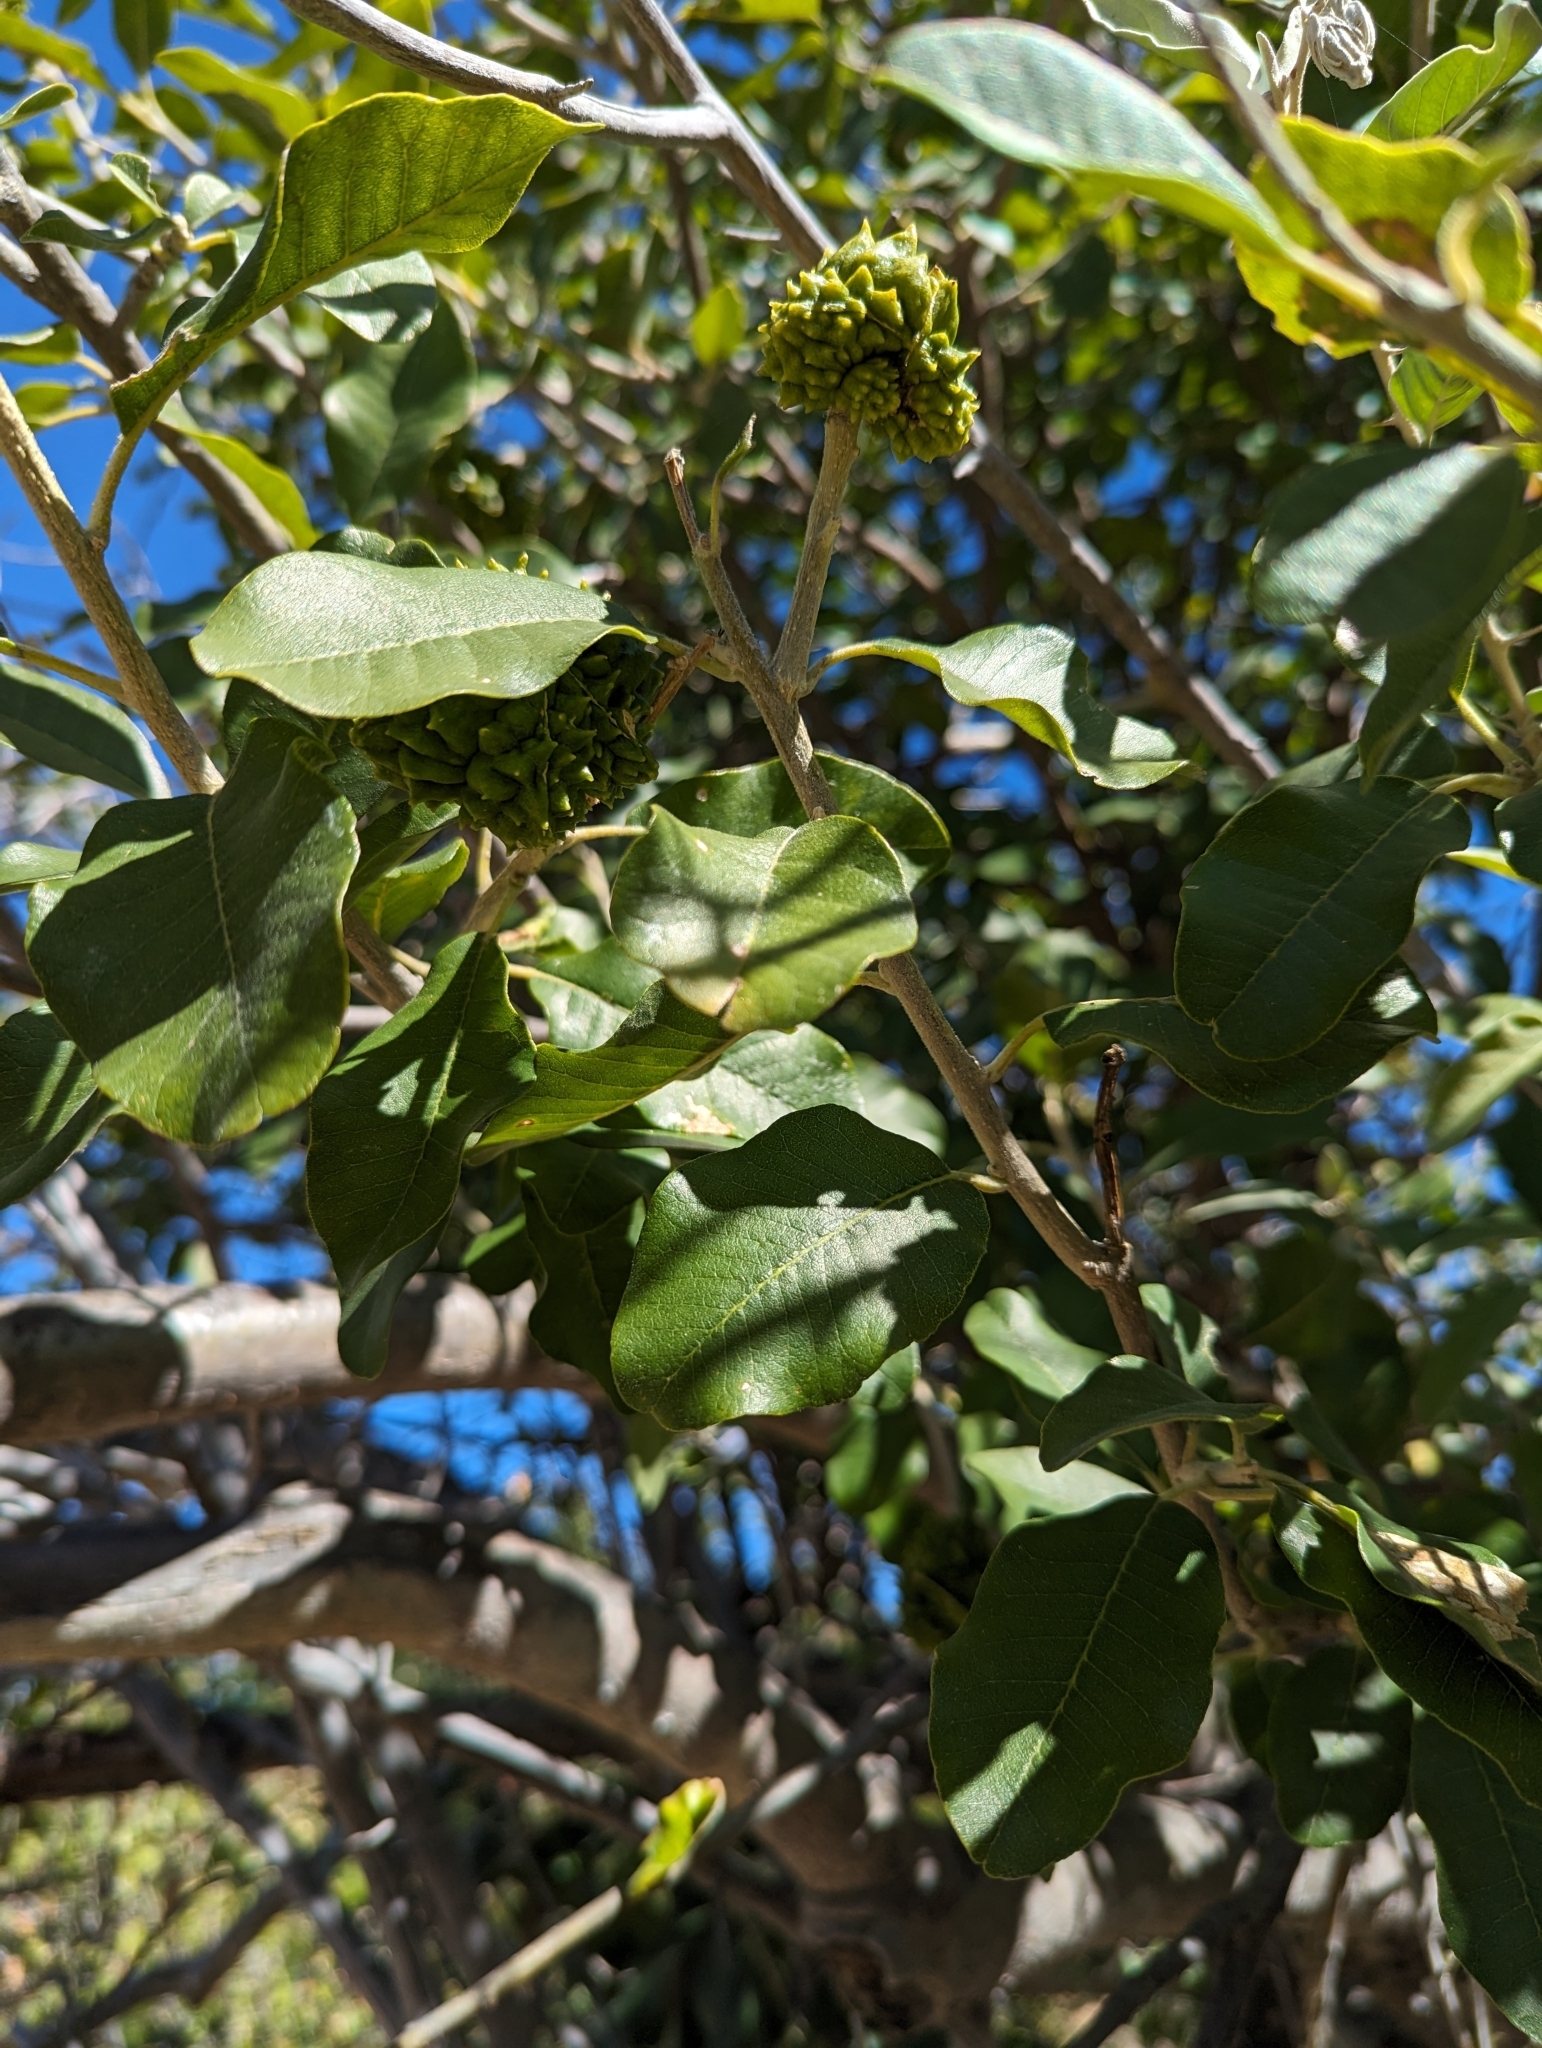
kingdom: Plantae
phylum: Tracheophyta
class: Magnoliopsida
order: Sapindales
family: Rutaceae
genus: Esenbeckia
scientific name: Esenbeckia flava
